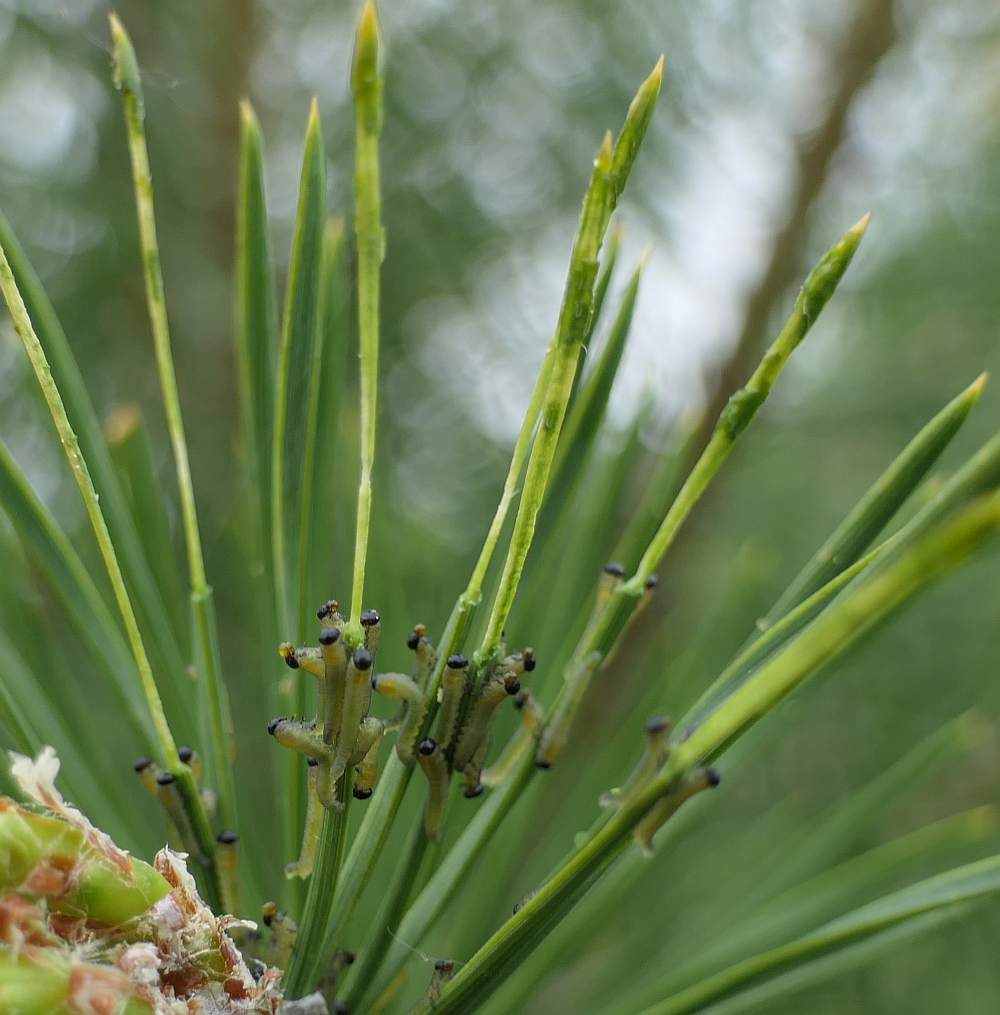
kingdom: Animalia
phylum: Arthropoda
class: Insecta
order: Hymenoptera
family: Diprionidae
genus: Neodiprion
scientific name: Neodiprion sertifer
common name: European pine sawfly
